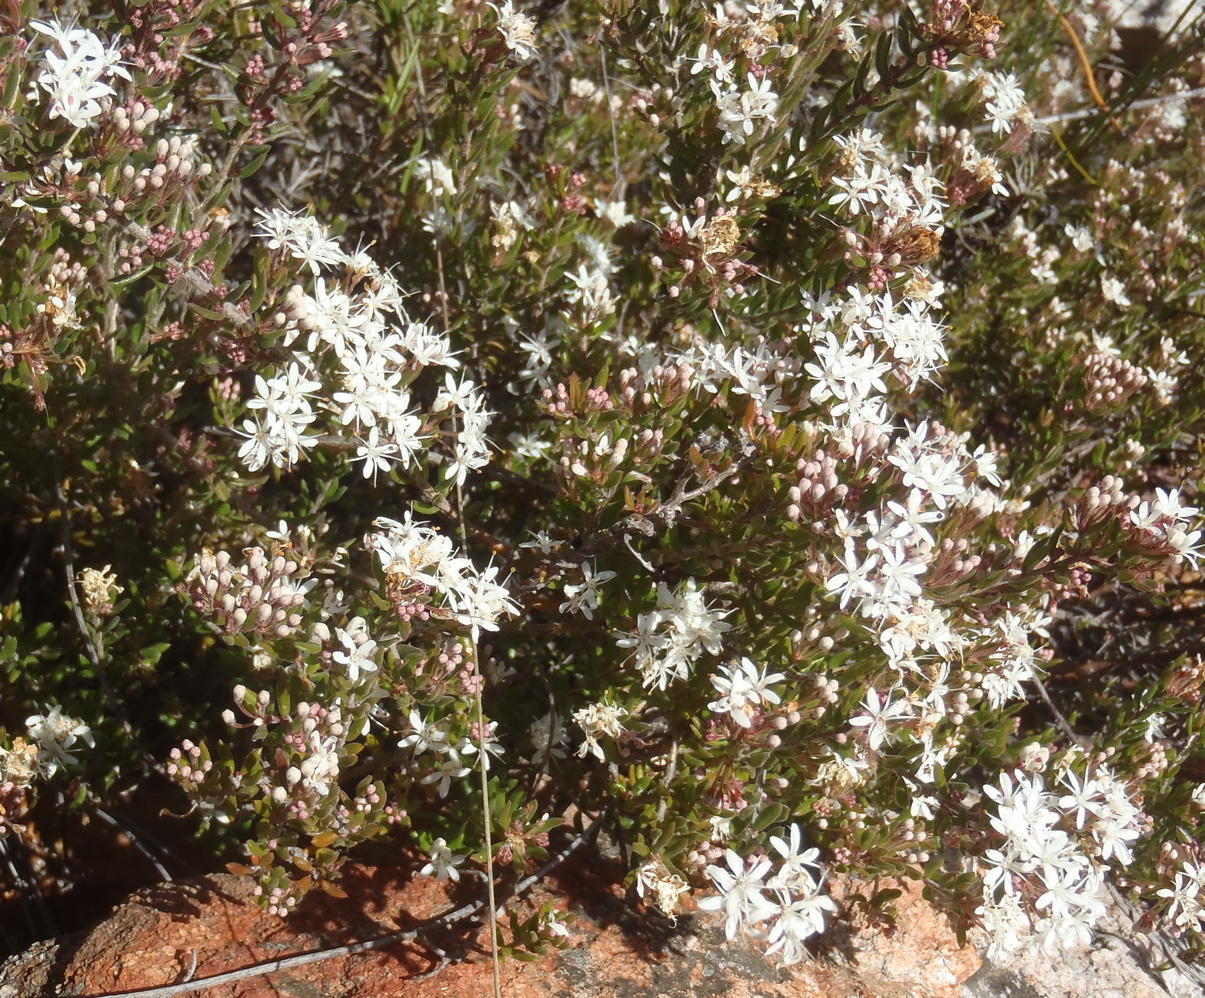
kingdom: Plantae
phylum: Tracheophyta
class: Magnoliopsida
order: Sapindales
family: Rutaceae
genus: Agathosma
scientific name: Agathosma mundtii
